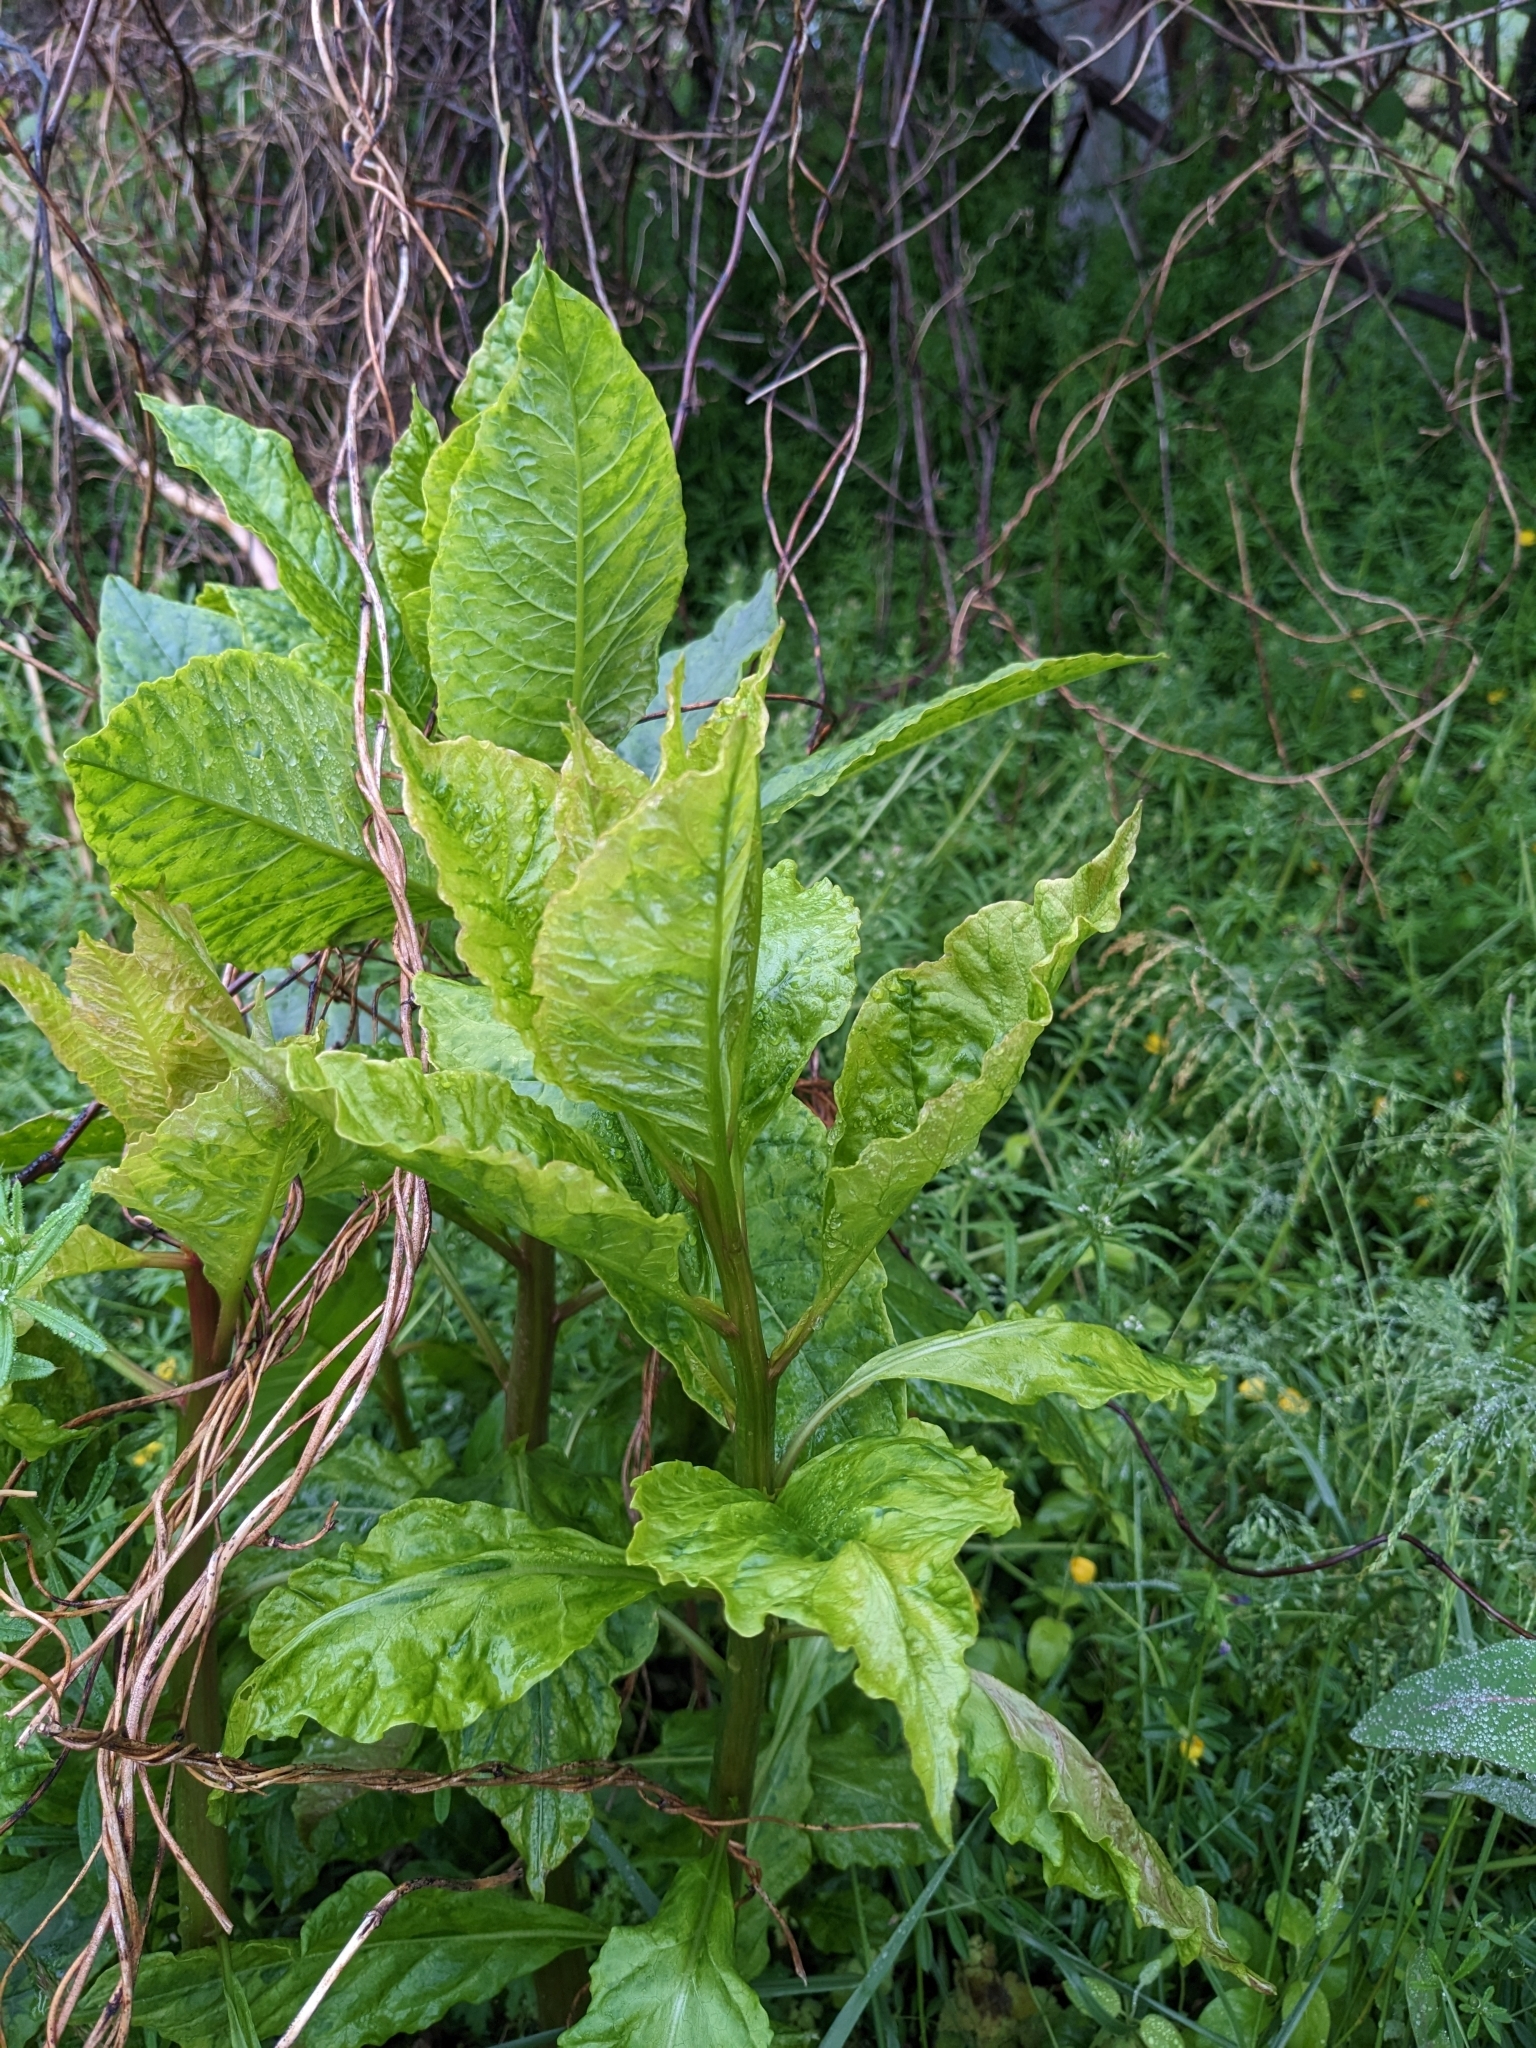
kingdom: Viruses
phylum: Pisuviricota
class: Stelpaviricetes
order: Patatavirales
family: Potyviridae
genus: Potyvirus
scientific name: Potyvirus Pokeweed mosaic virus
